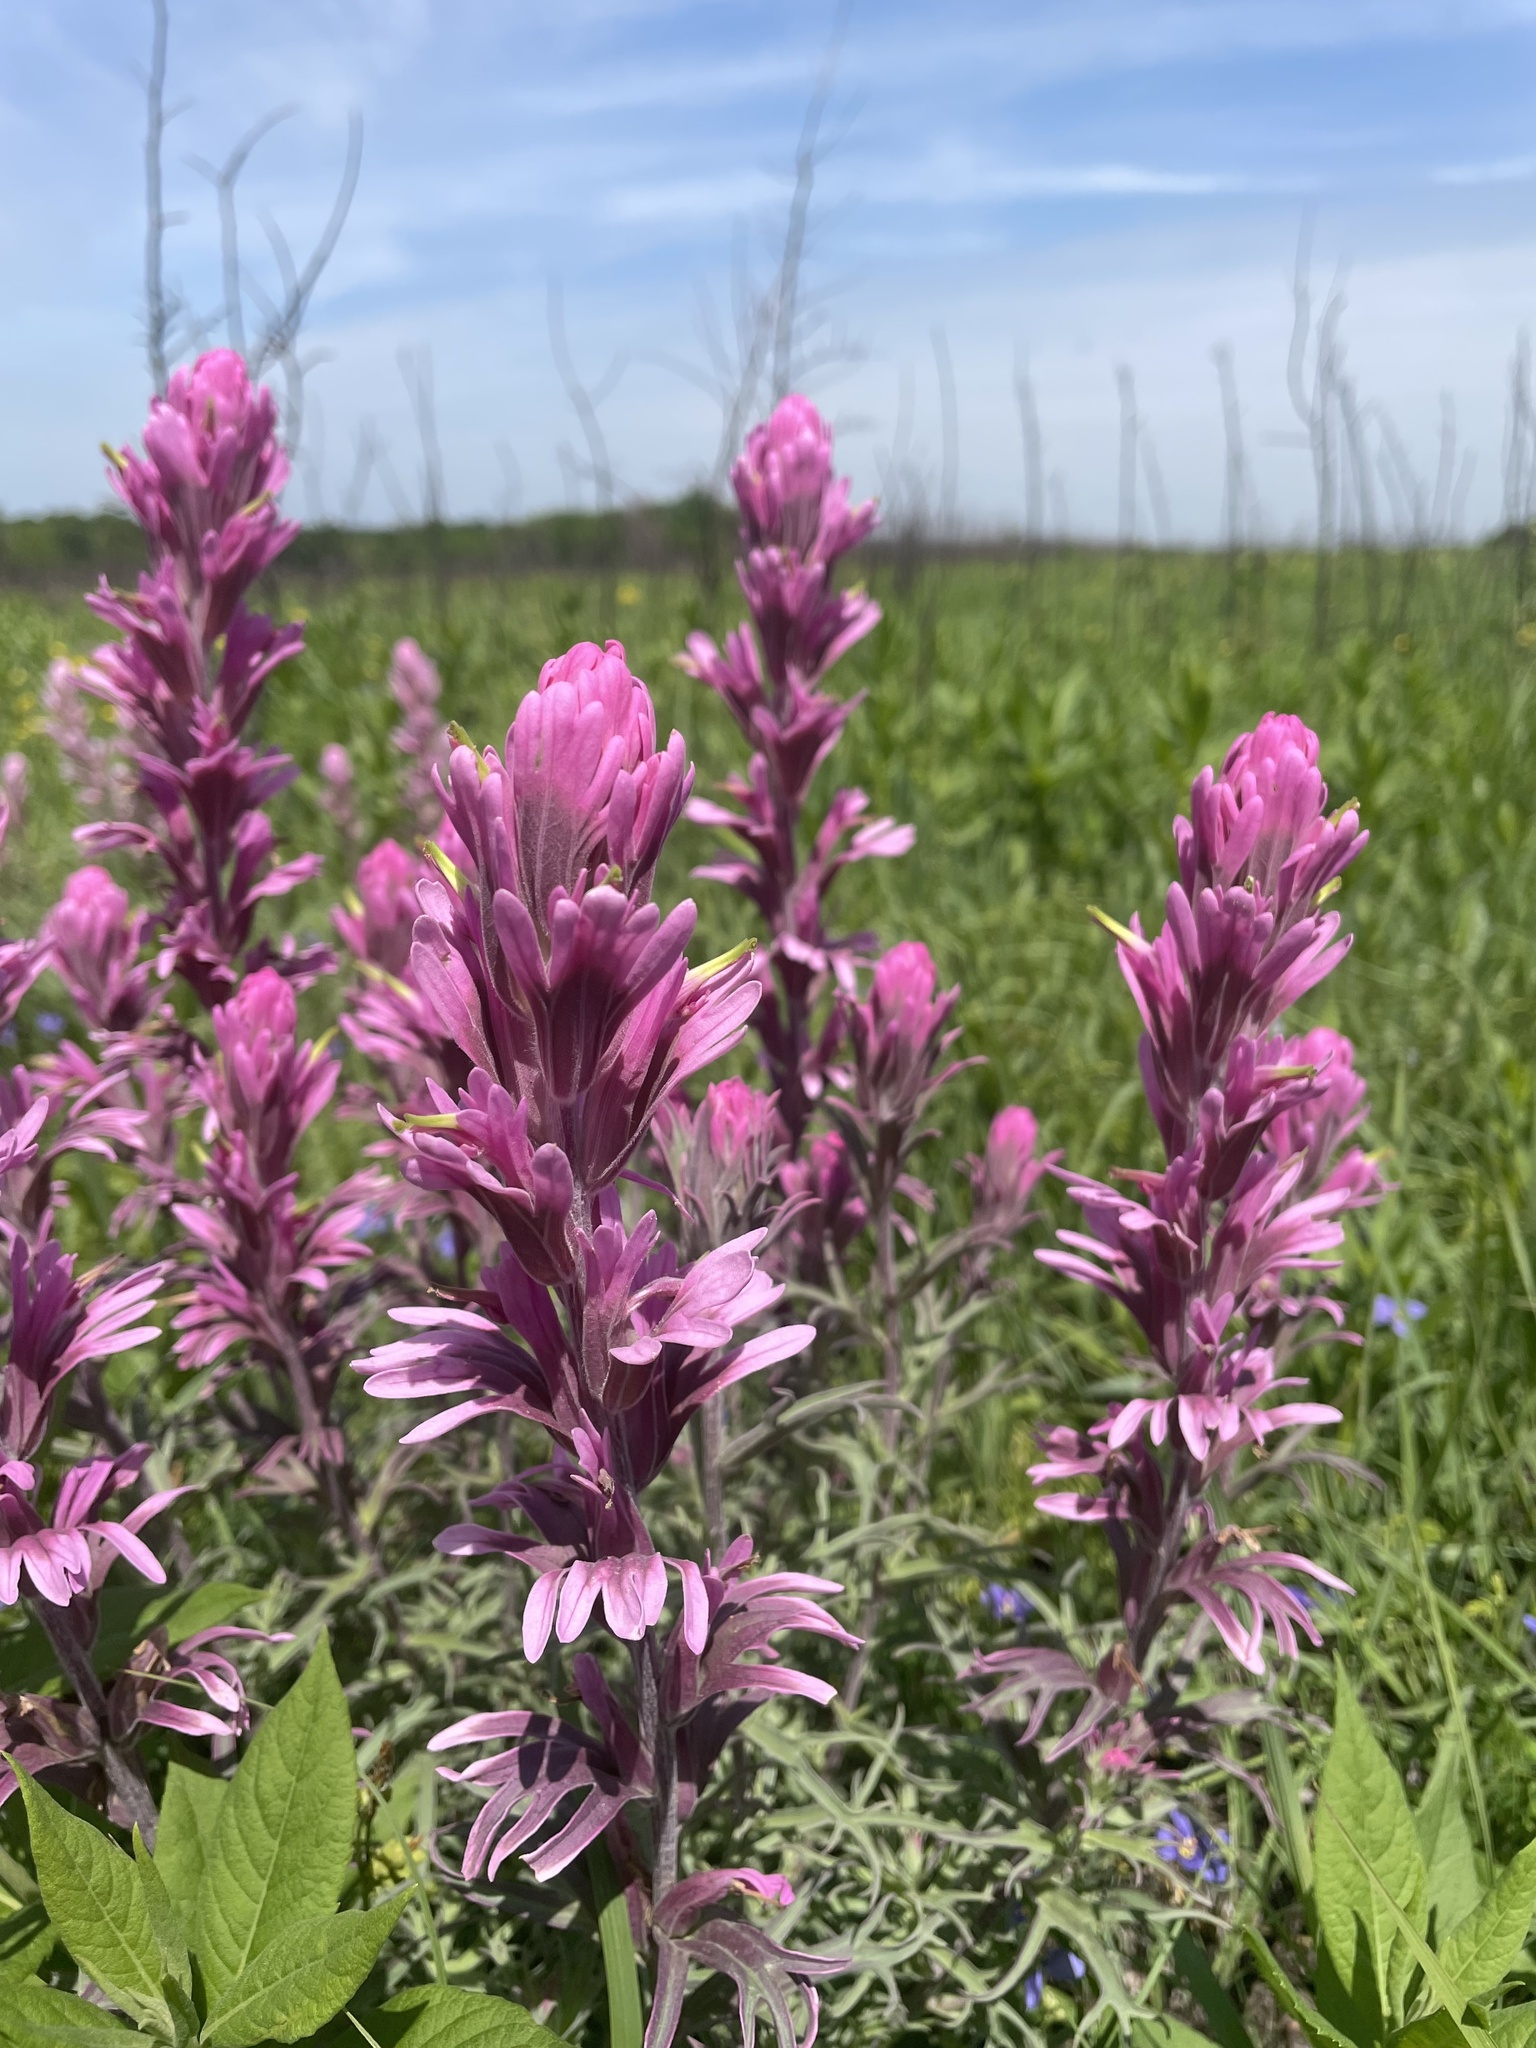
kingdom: Plantae
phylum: Tracheophyta
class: Magnoliopsida
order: Lamiales
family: Orobanchaceae
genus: Castilleja
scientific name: Castilleja purpurea
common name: Plains paintbrush
